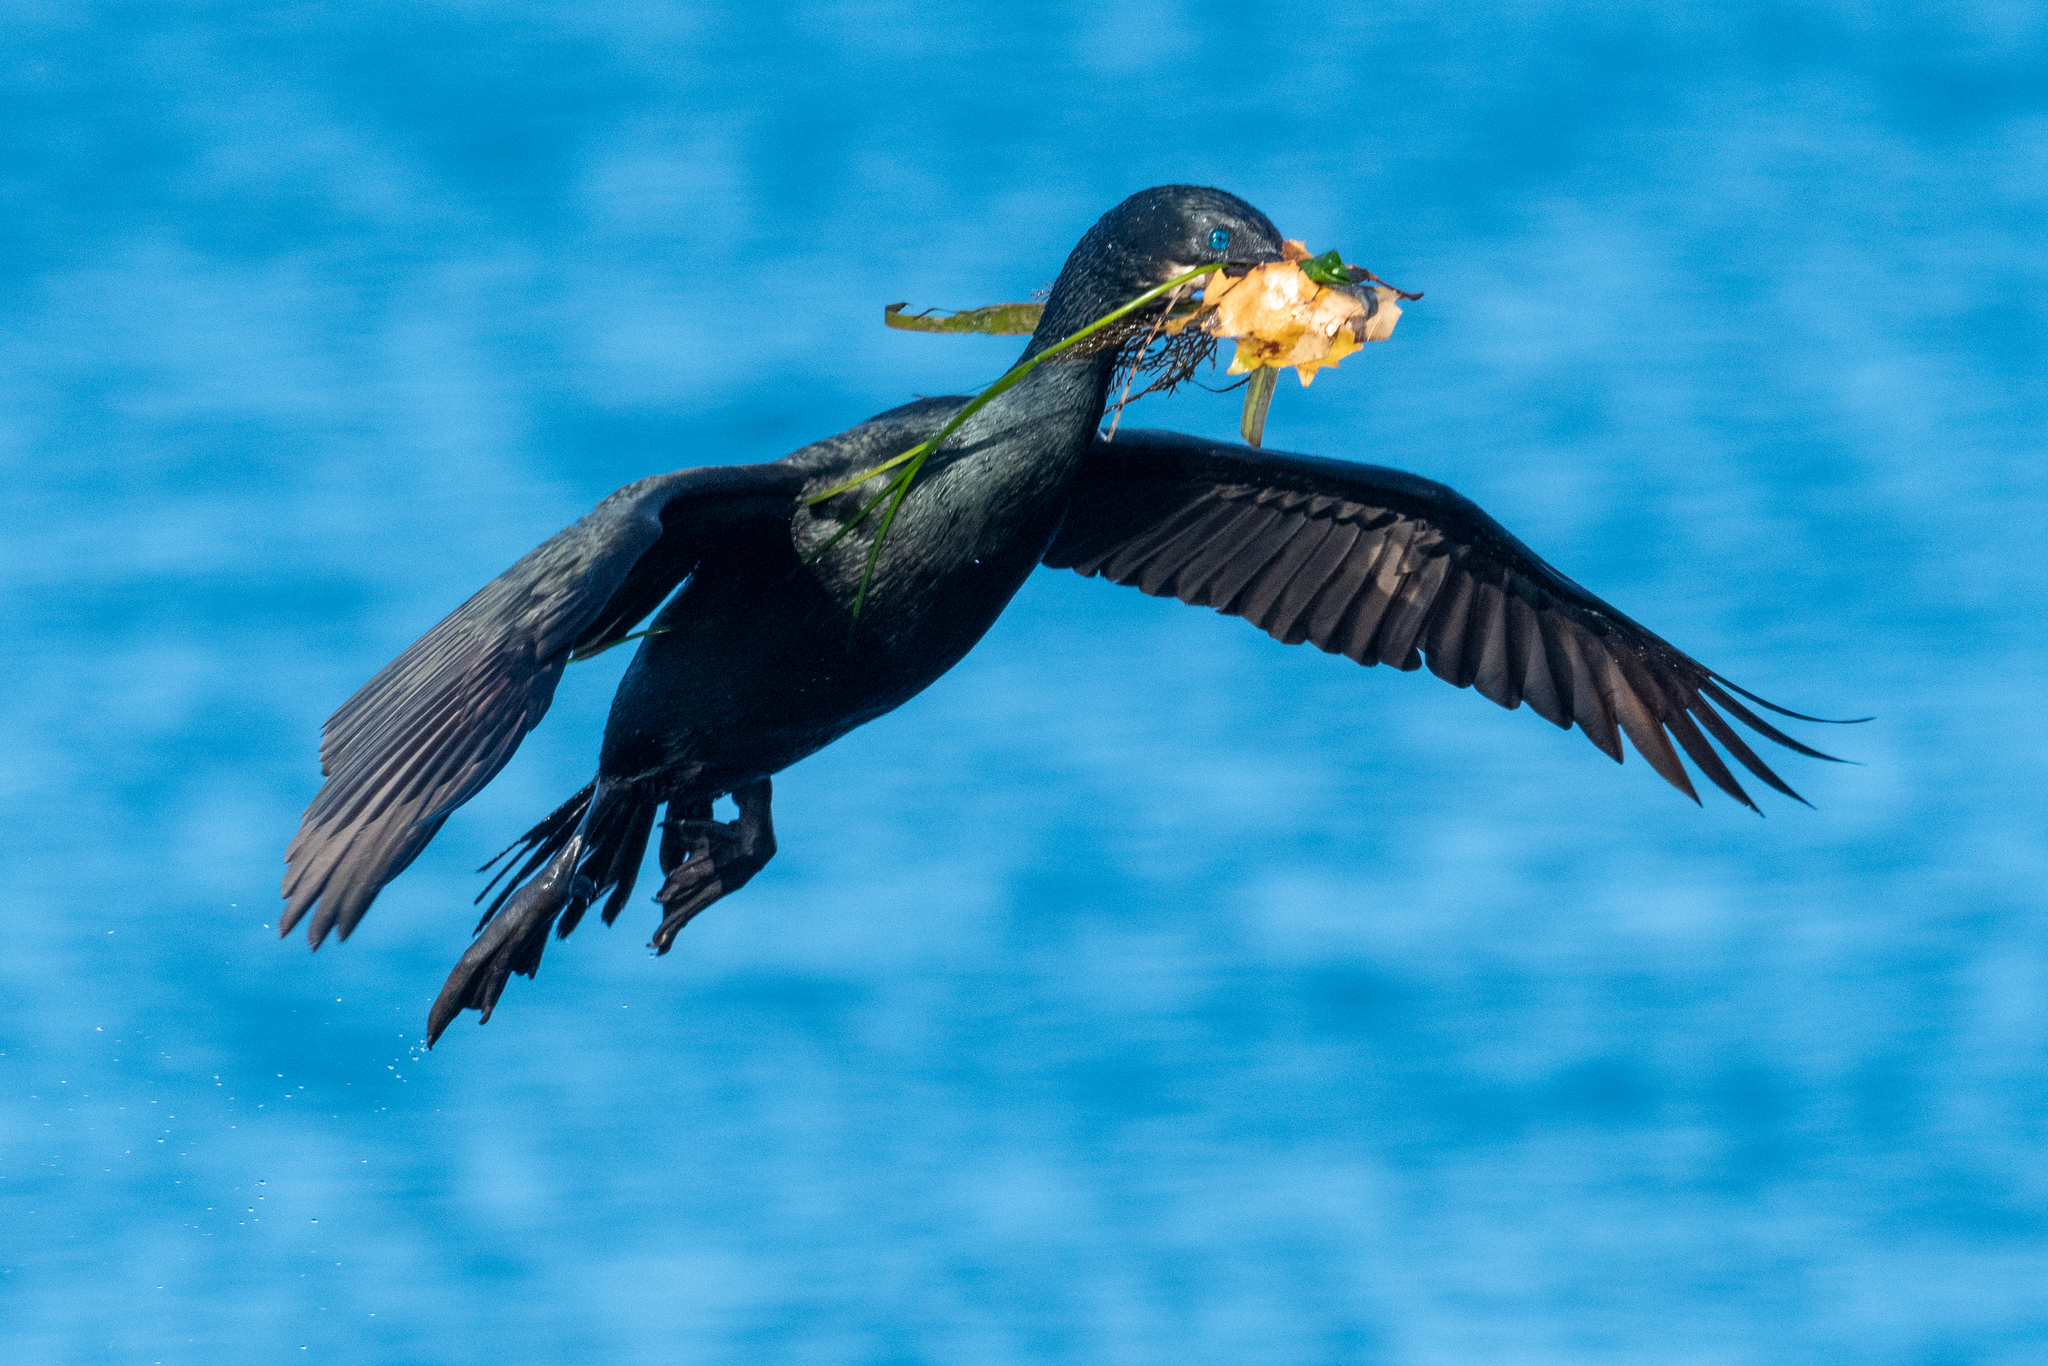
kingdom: Animalia
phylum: Chordata
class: Aves
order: Suliformes
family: Phalacrocoracidae
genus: Urile
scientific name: Urile penicillatus
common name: Brandt's cormorant
